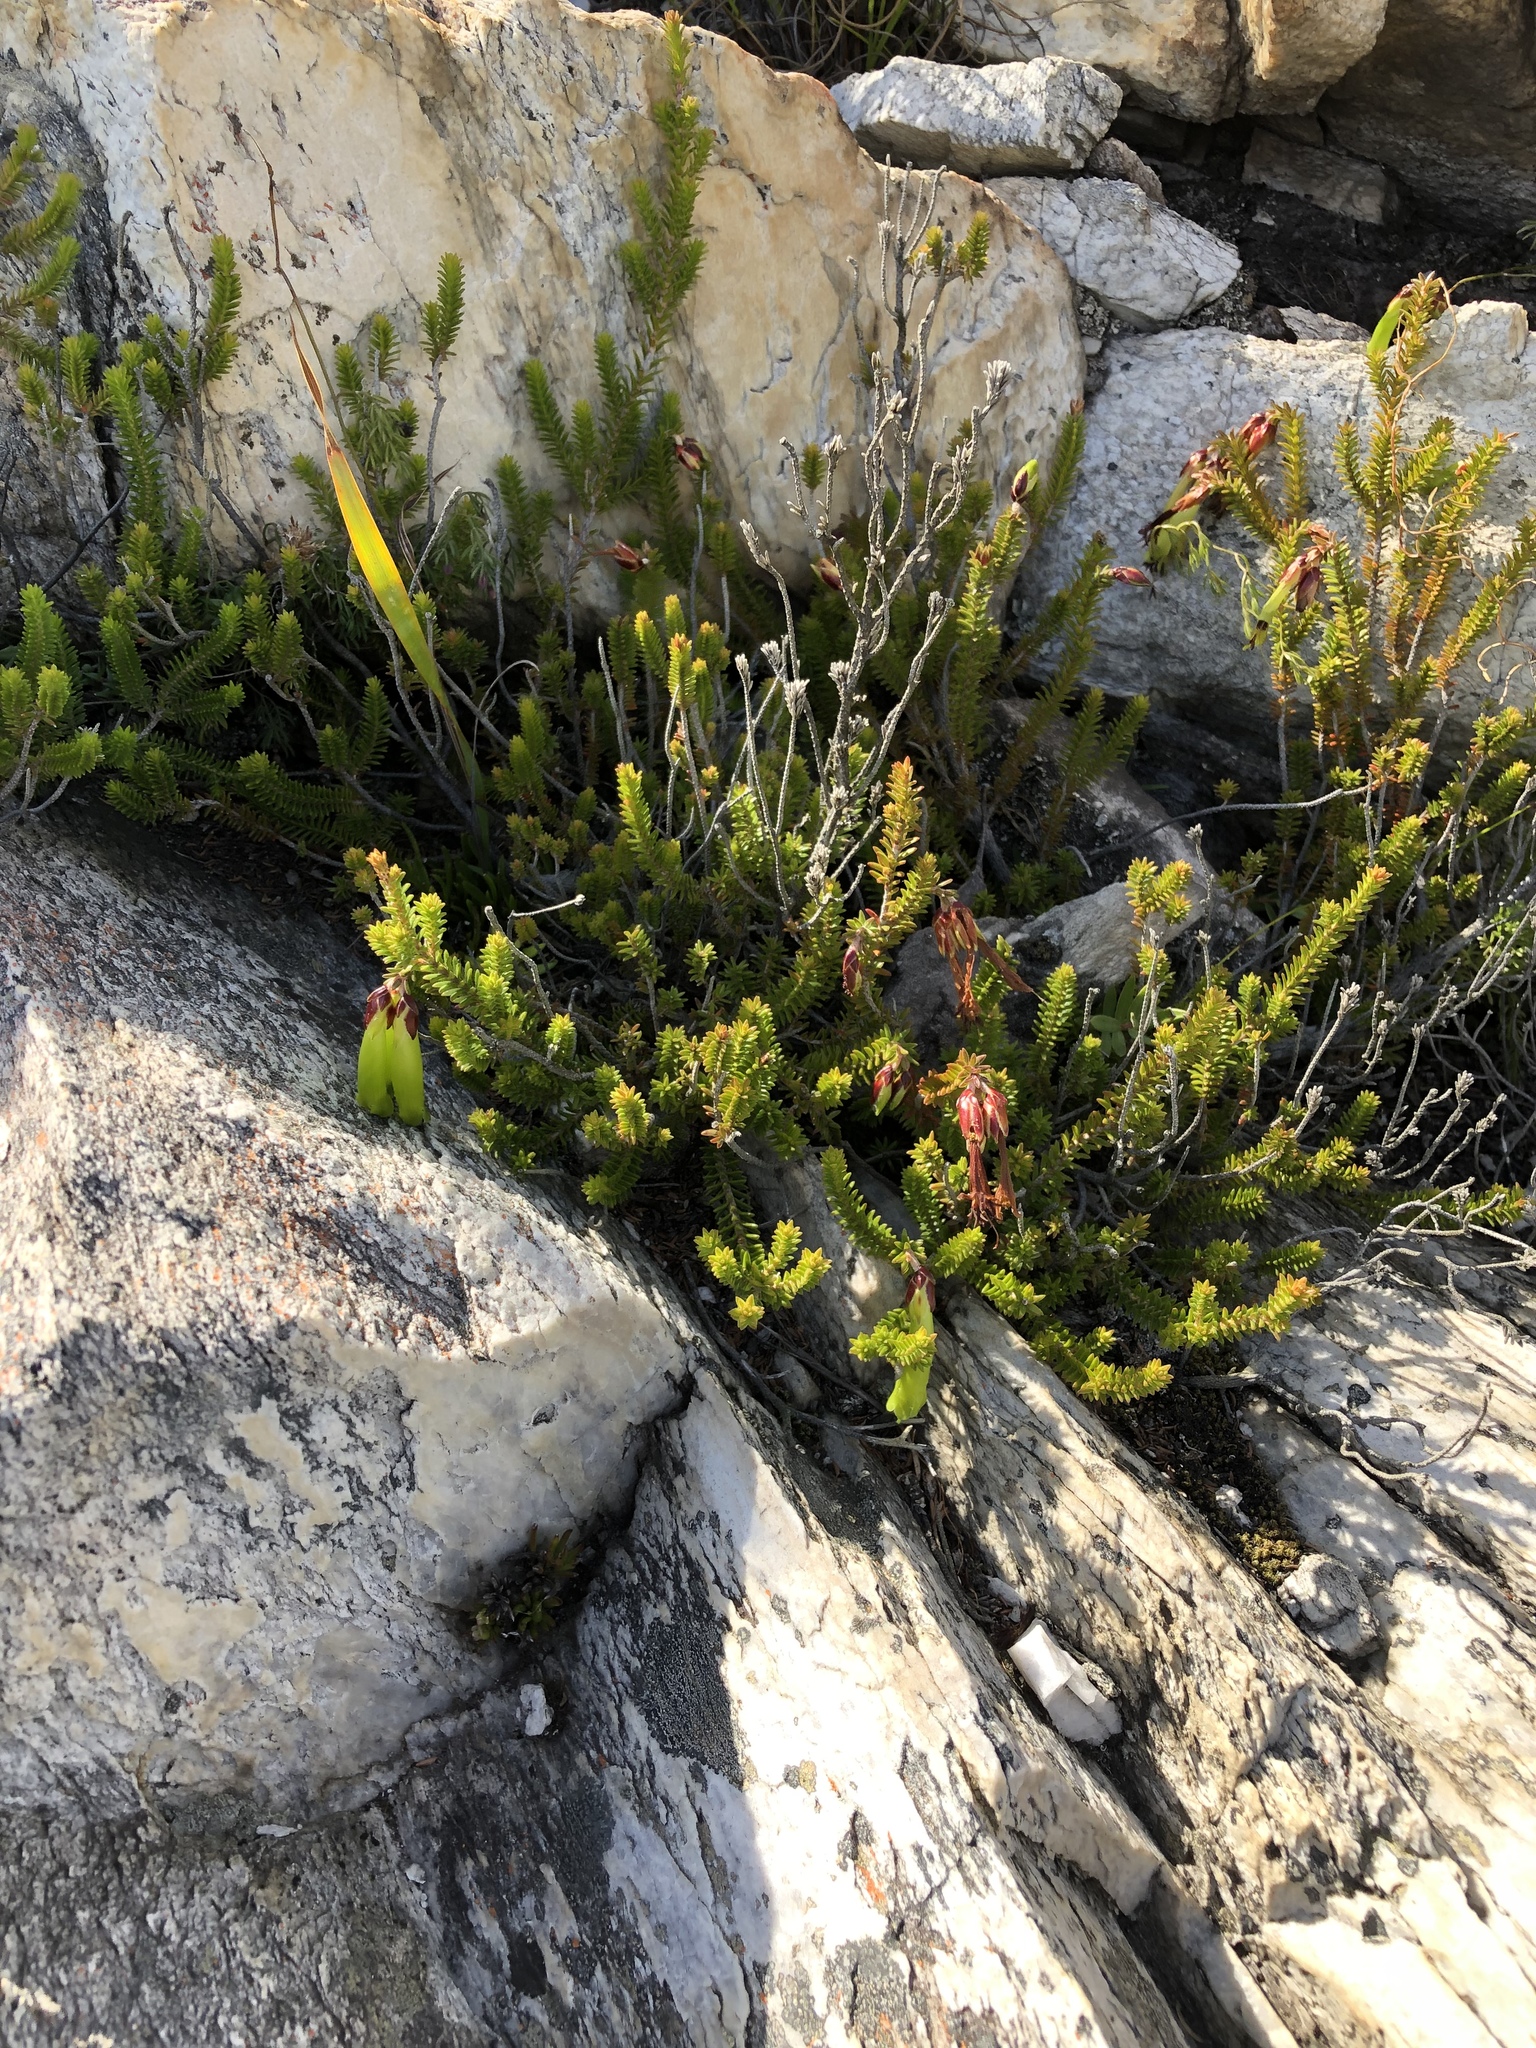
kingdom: Plantae
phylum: Tracheophyta
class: Magnoliopsida
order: Ericales
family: Ericaceae
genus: Erica
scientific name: Erica viridiflora
